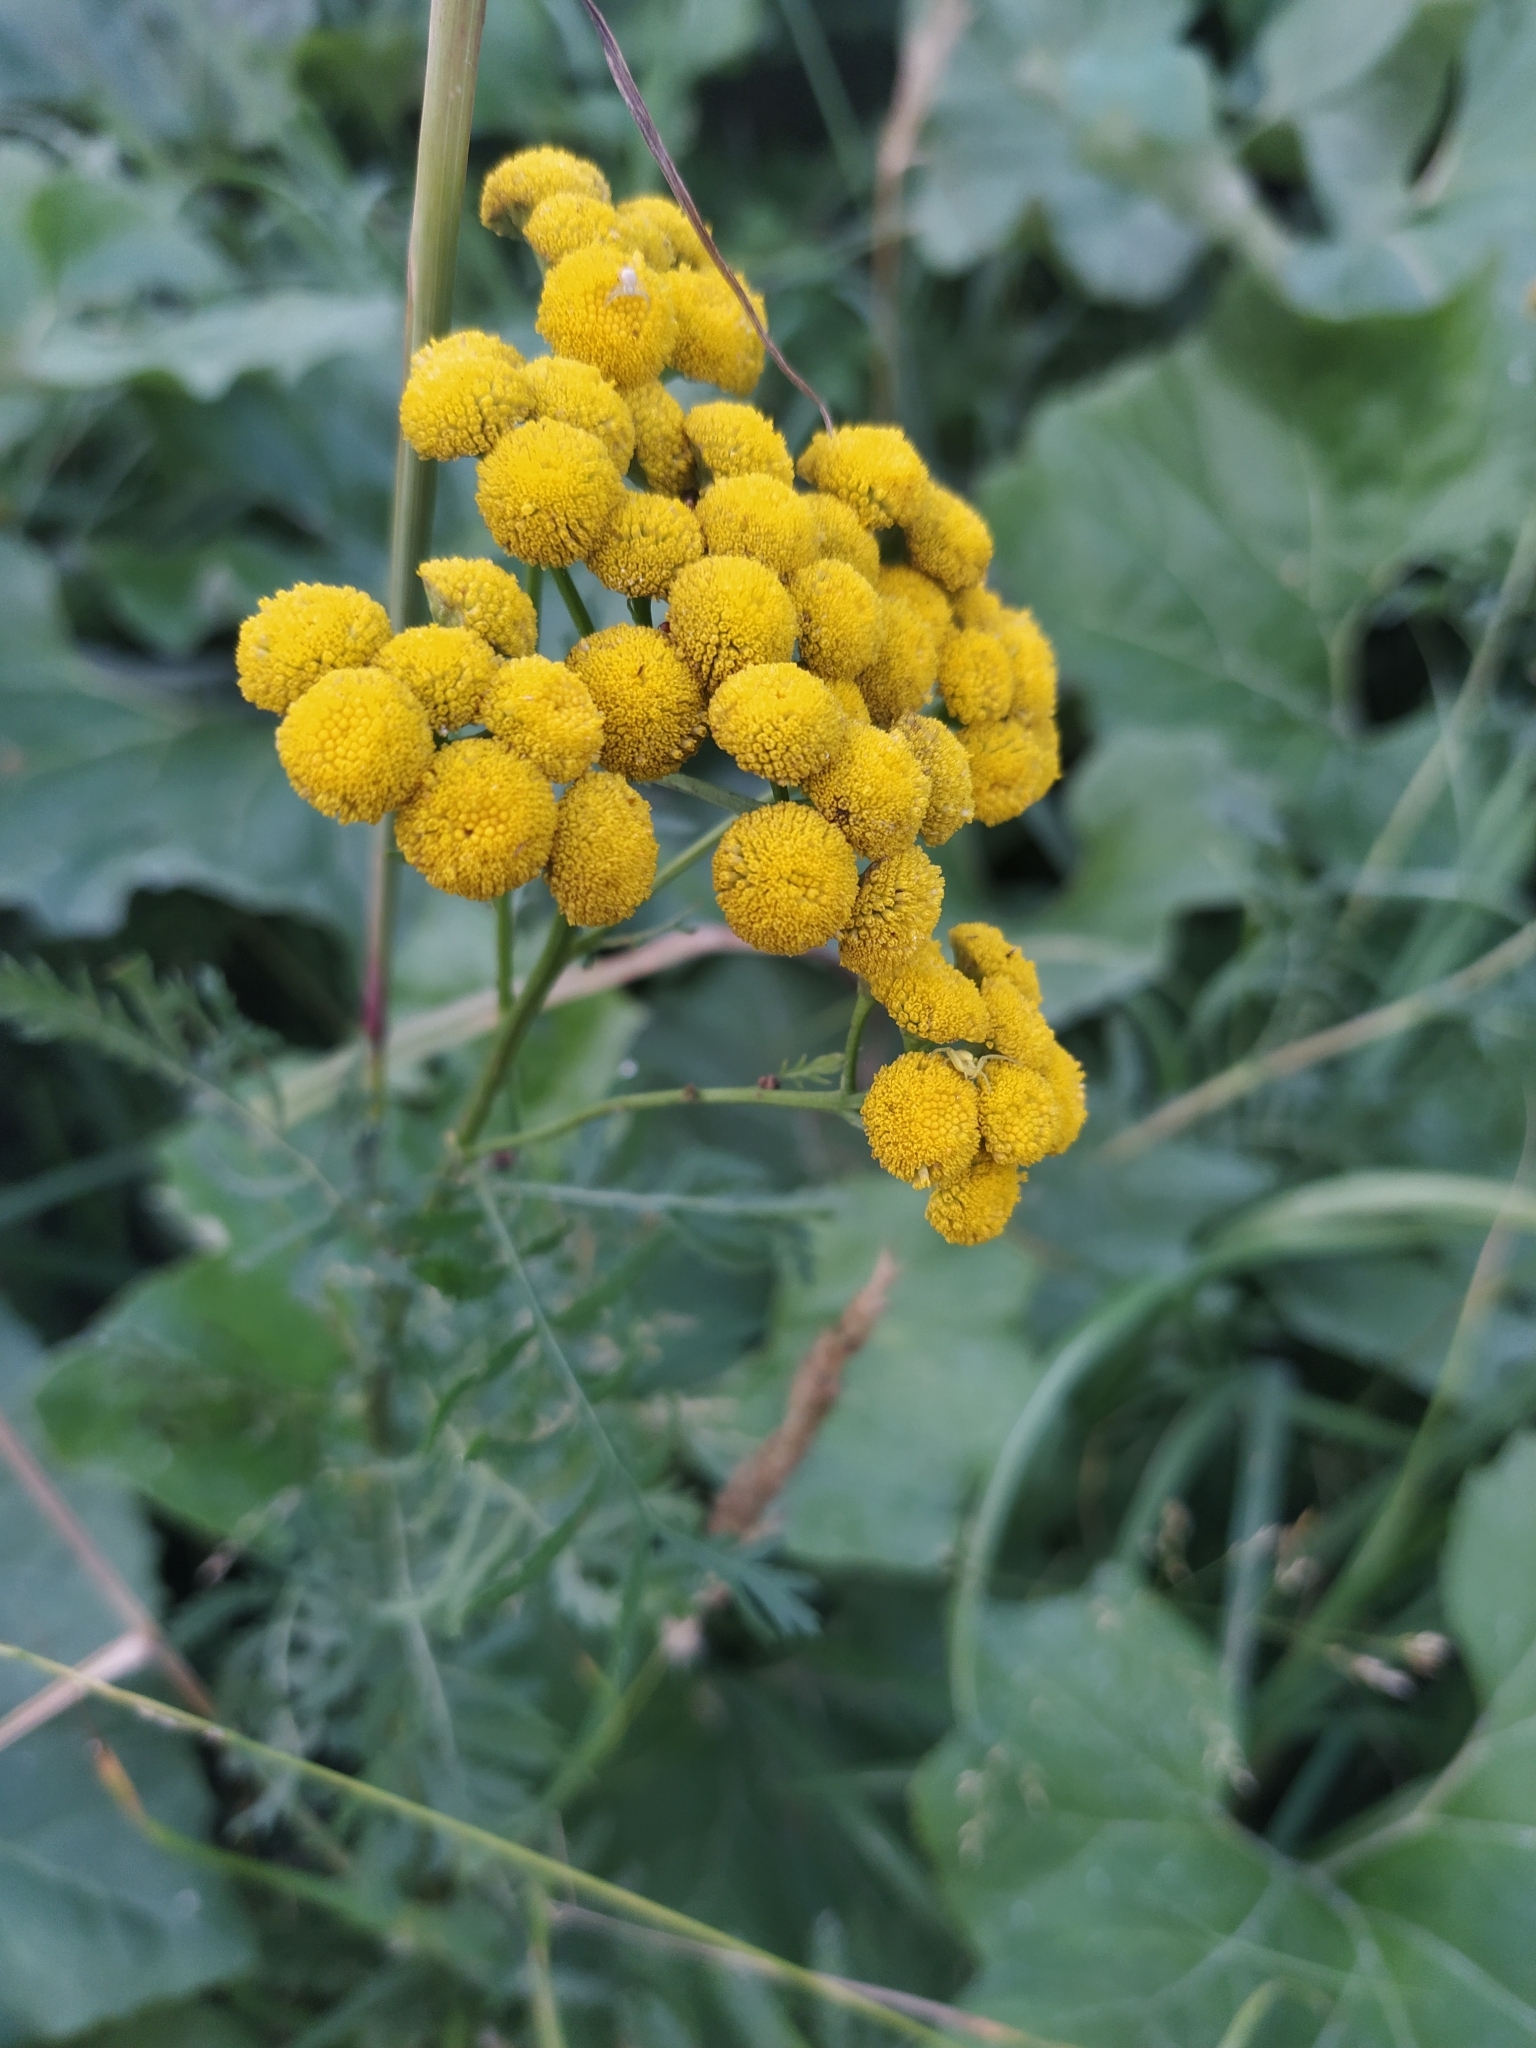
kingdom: Plantae
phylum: Tracheophyta
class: Magnoliopsida
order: Asterales
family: Asteraceae
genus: Tanacetum
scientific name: Tanacetum vulgare
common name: Common tansy
